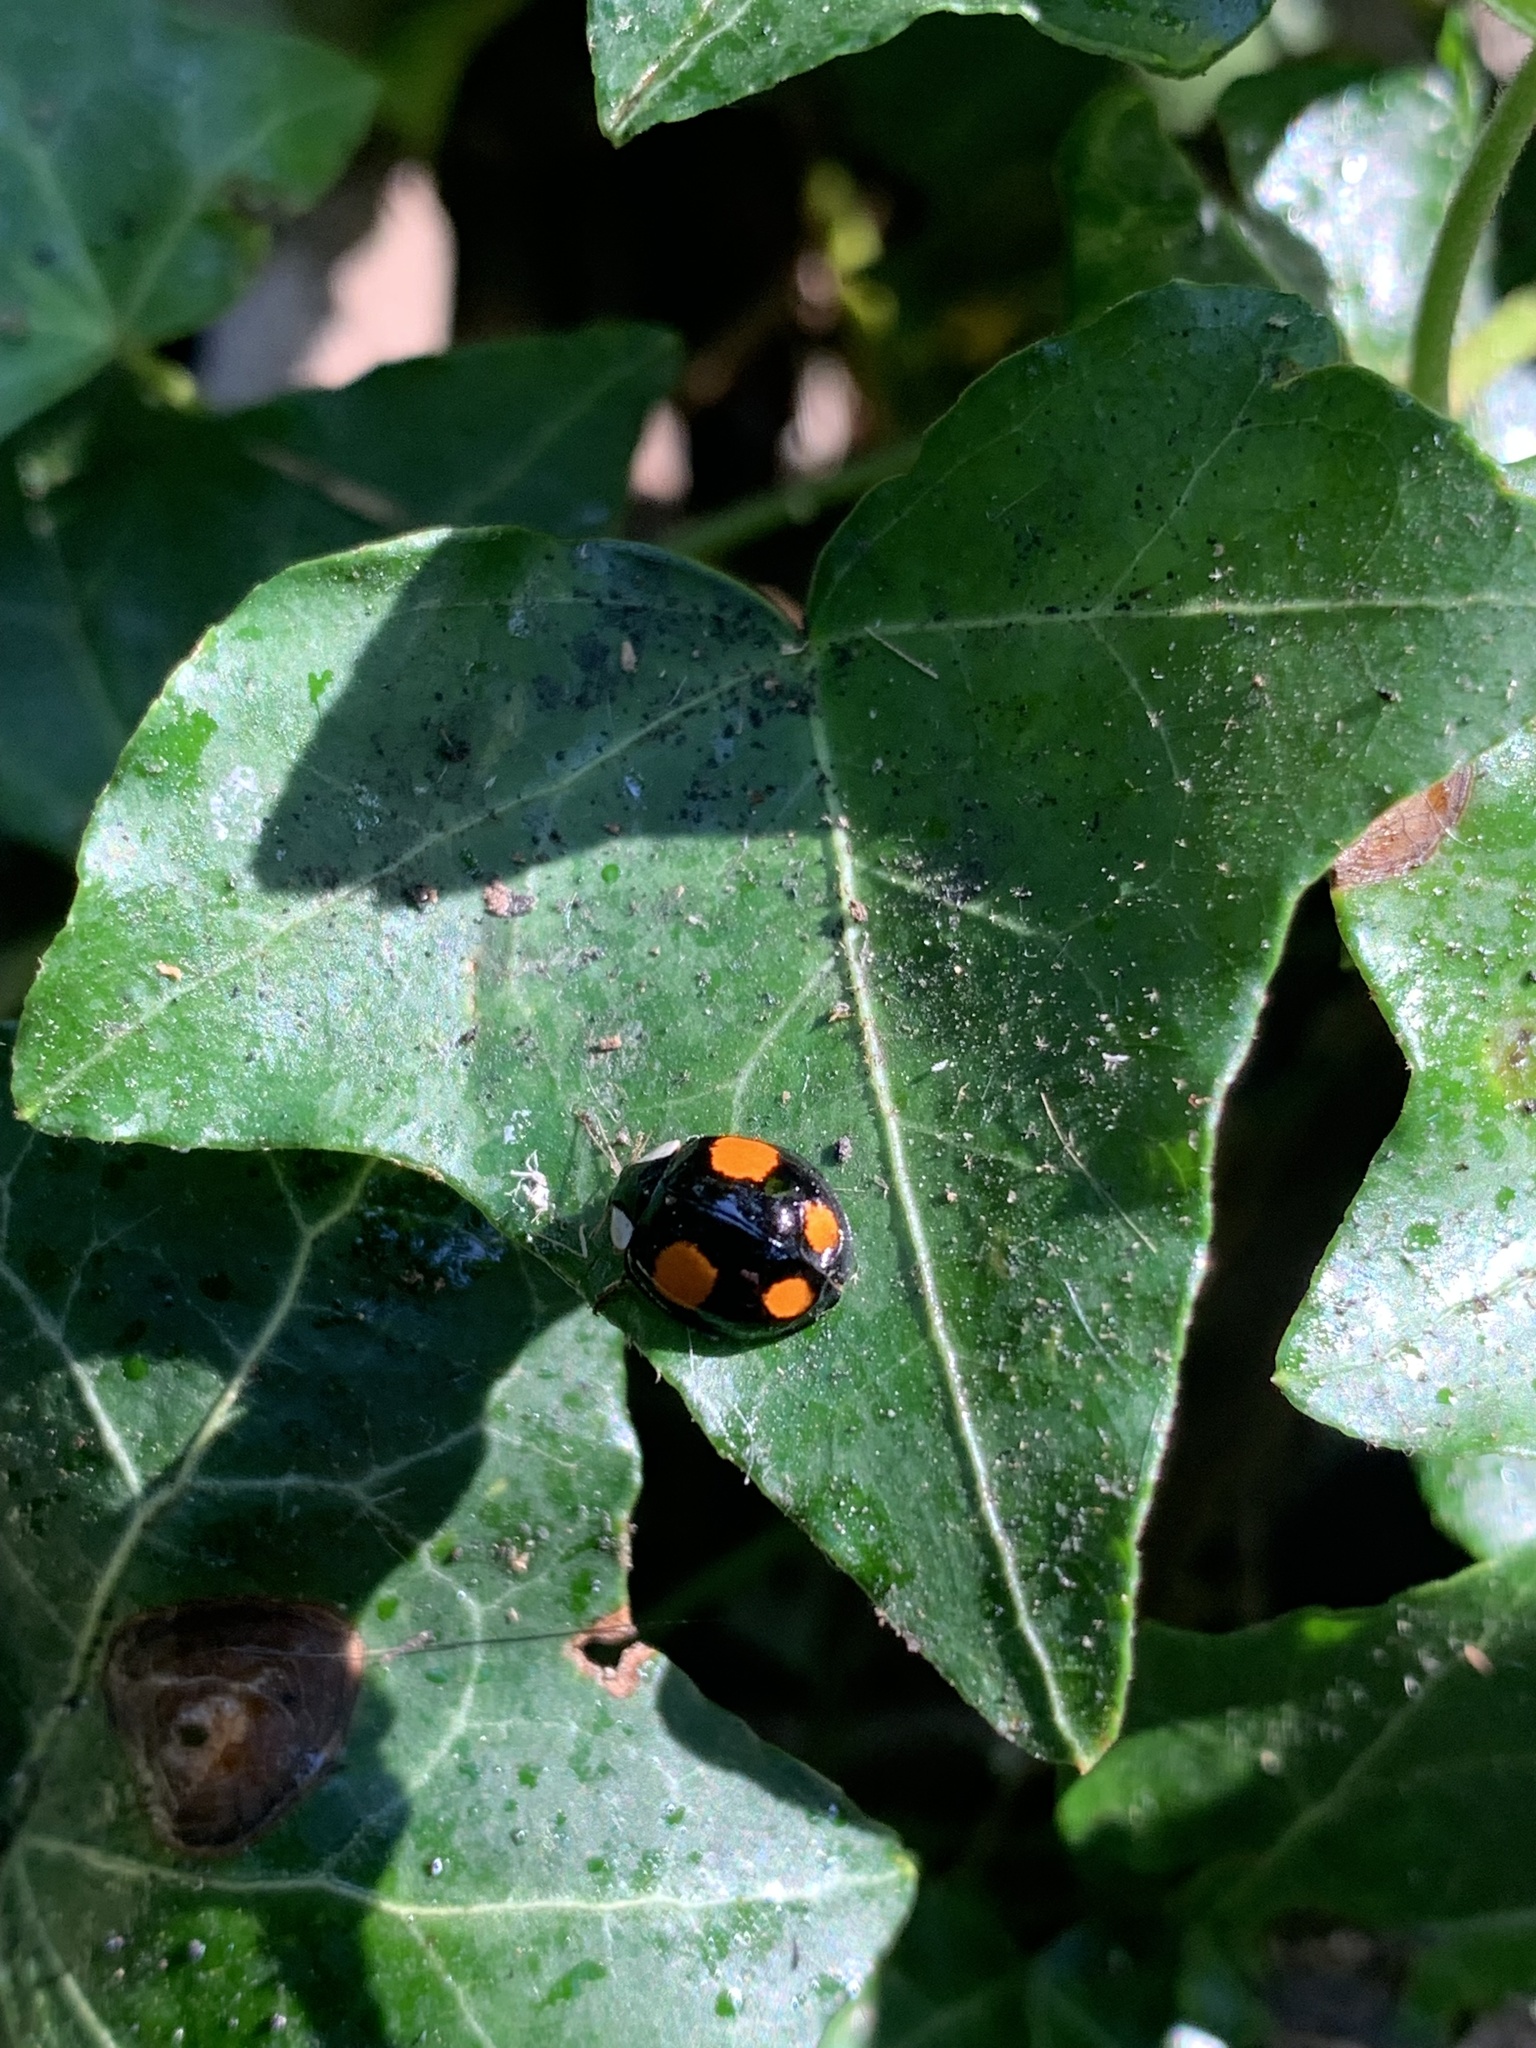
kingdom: Animalia
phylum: Arthropoda
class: Insecta
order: Coleoptera
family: Coccinellidae
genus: Harmonia
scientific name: Harmonia axyridis
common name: Harlequin ladybird
